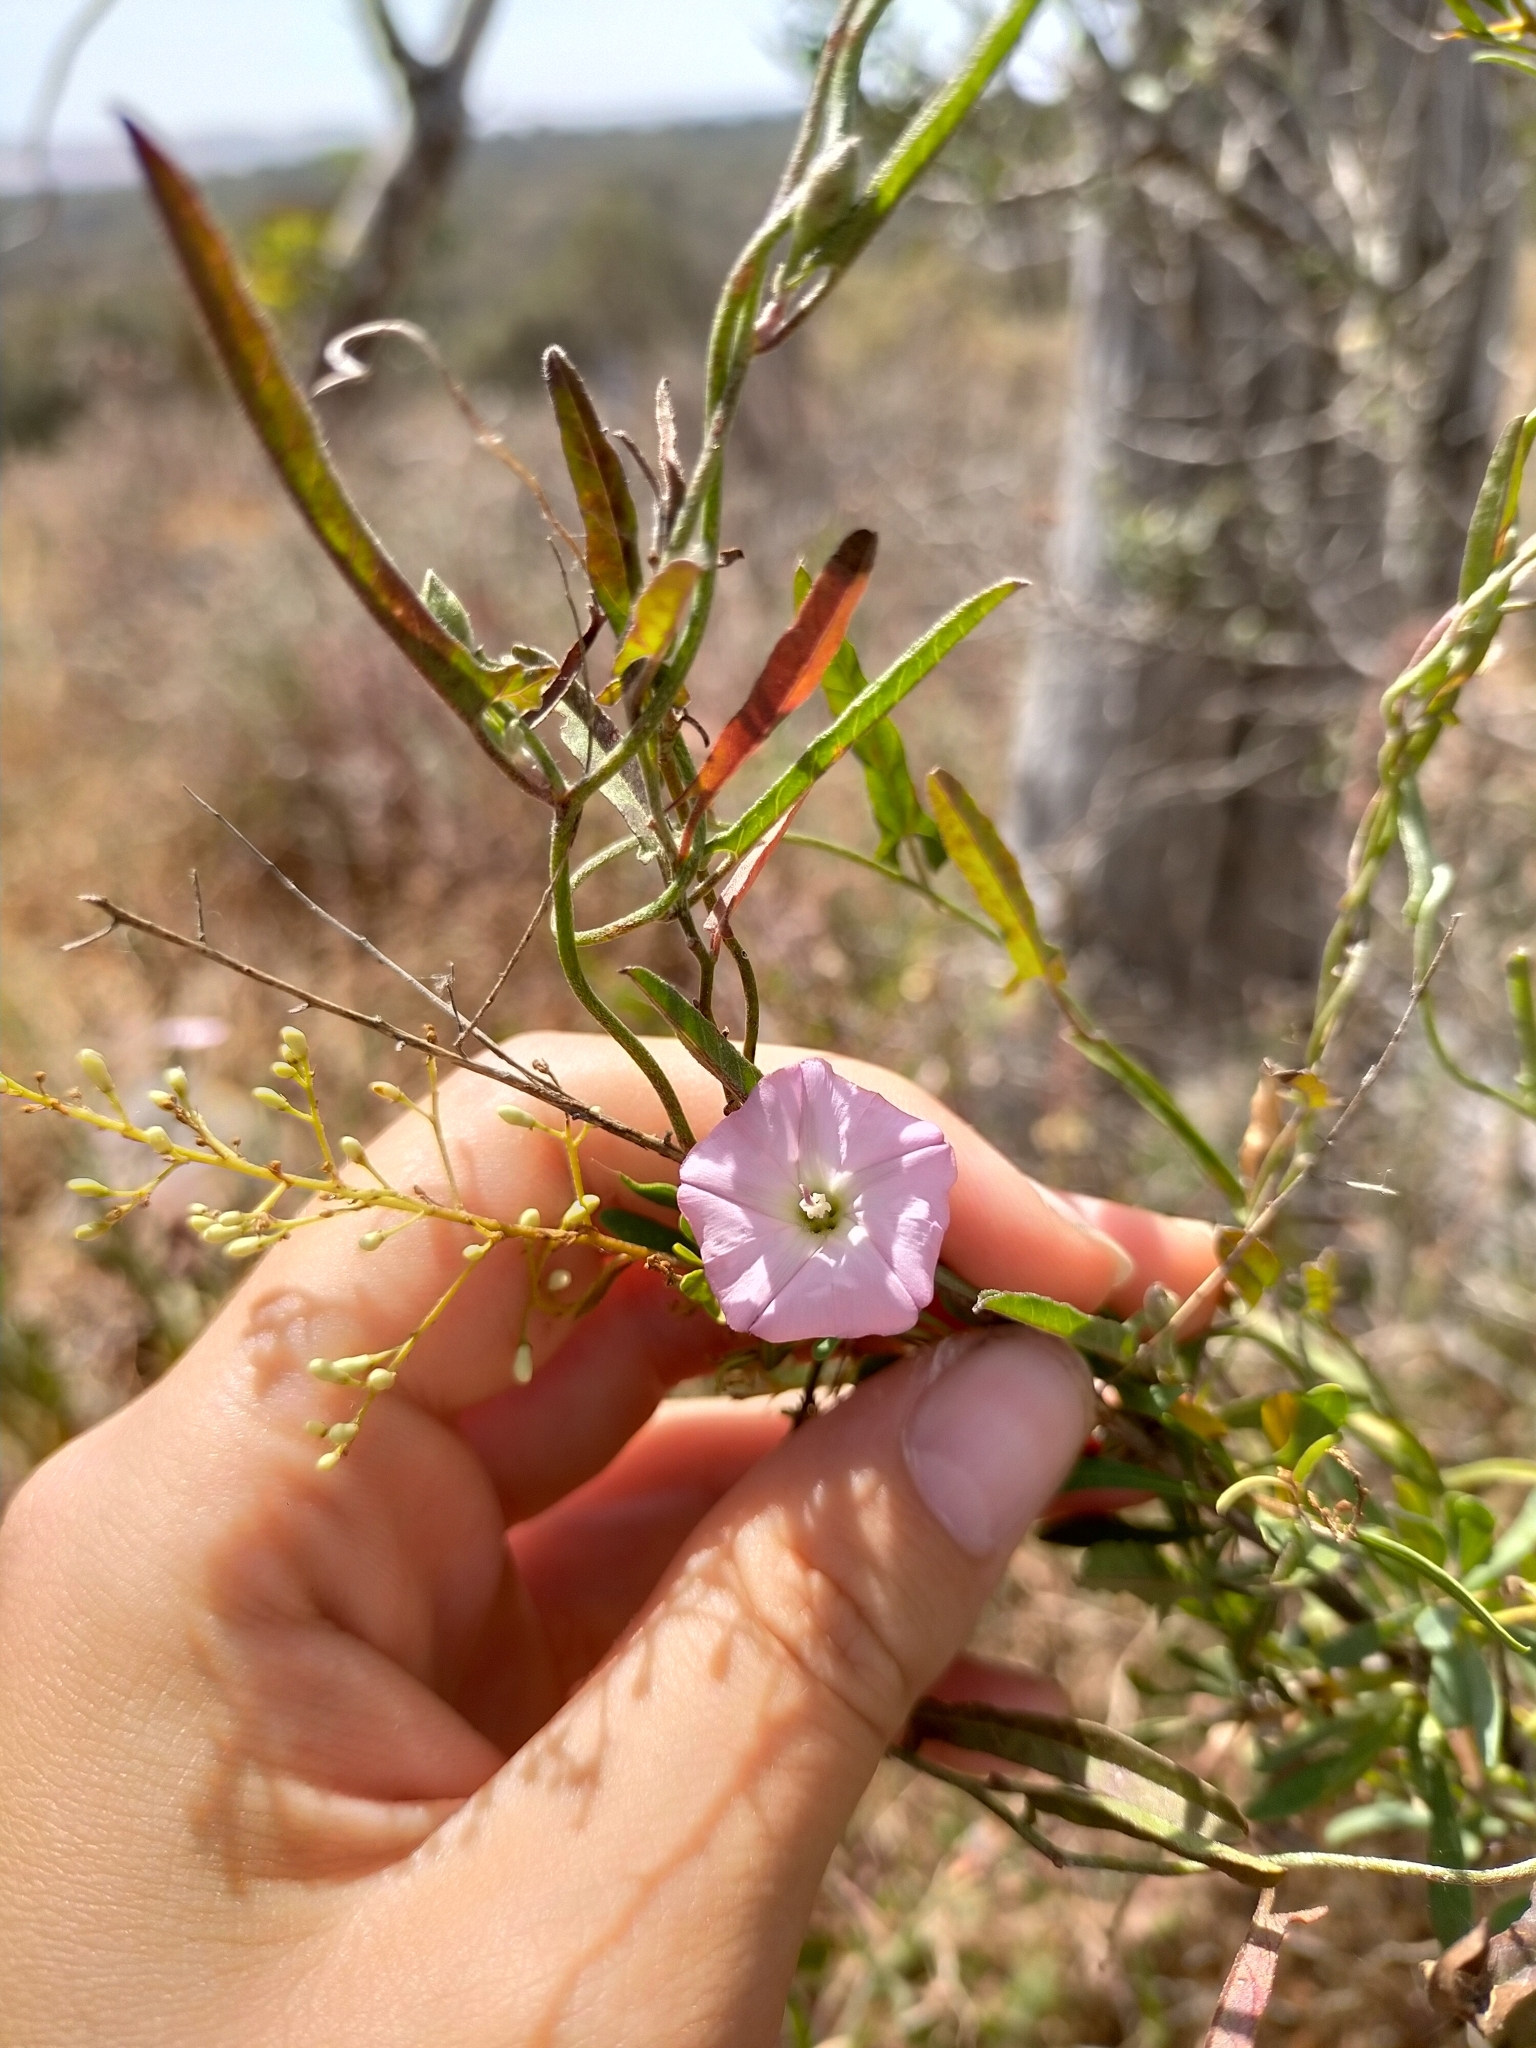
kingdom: Plantae
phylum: Tracheophyta
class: Magnoliopsida
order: Solanales
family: Convolvulaceae
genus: Convolvulus
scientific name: Convolvulus remotus
